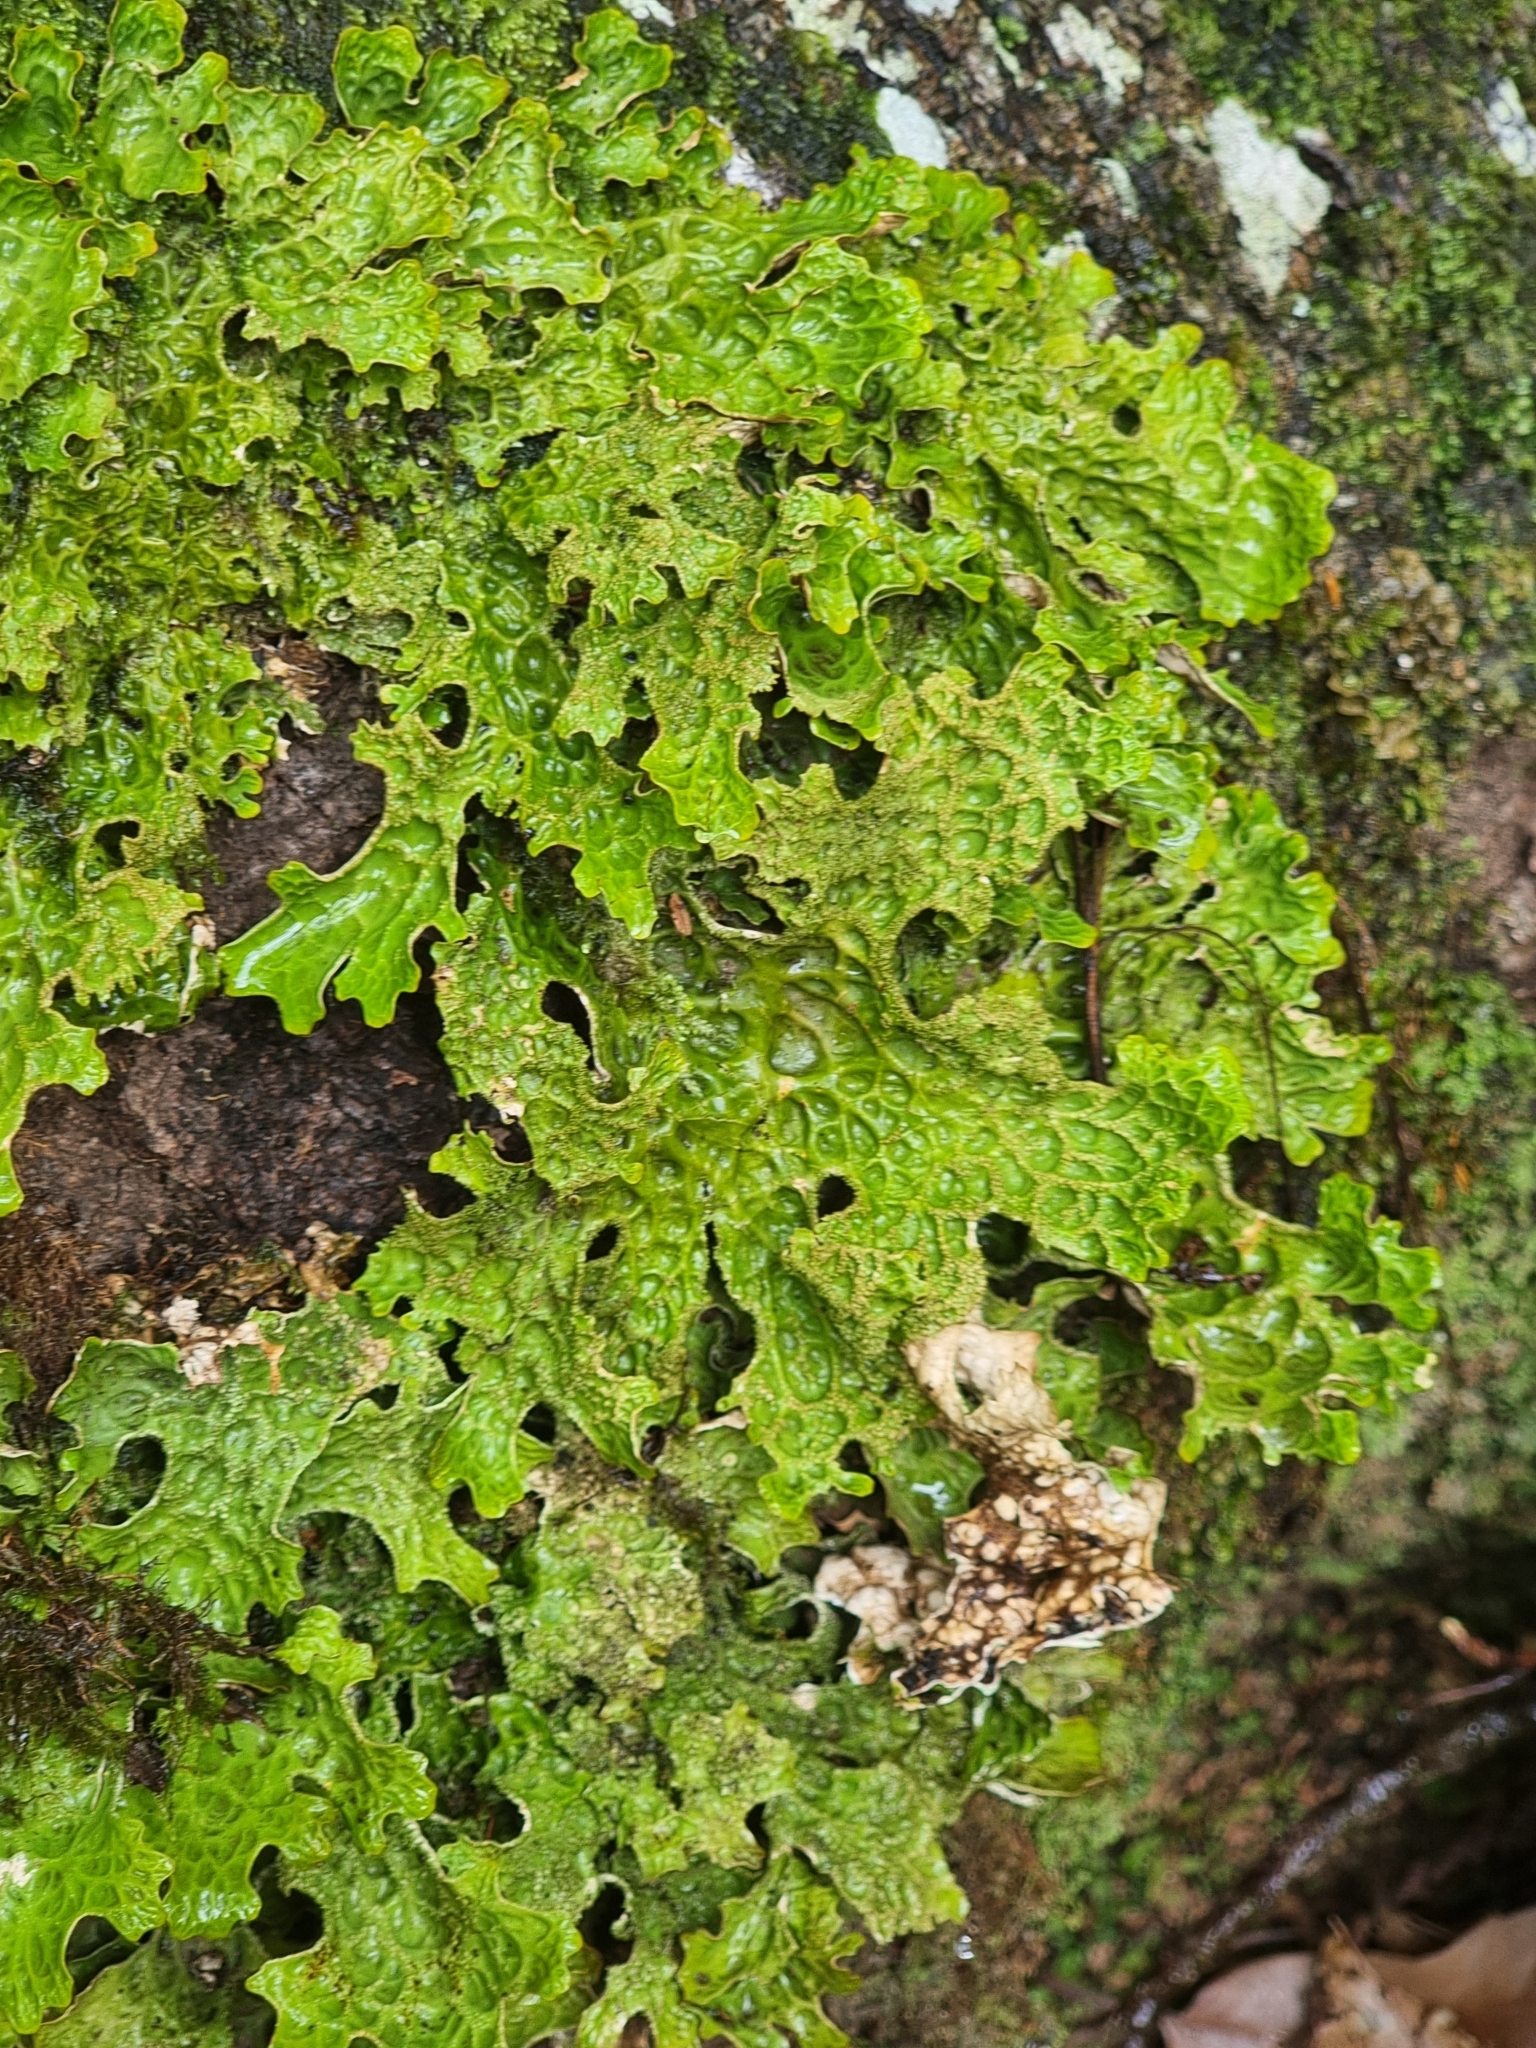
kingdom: Fungi
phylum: Ascomycota
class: Lecanoromycetes
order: Peltigerales
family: Lobariaceae
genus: Lobaria
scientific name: Lobaria pulmonaria
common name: Lungwort
